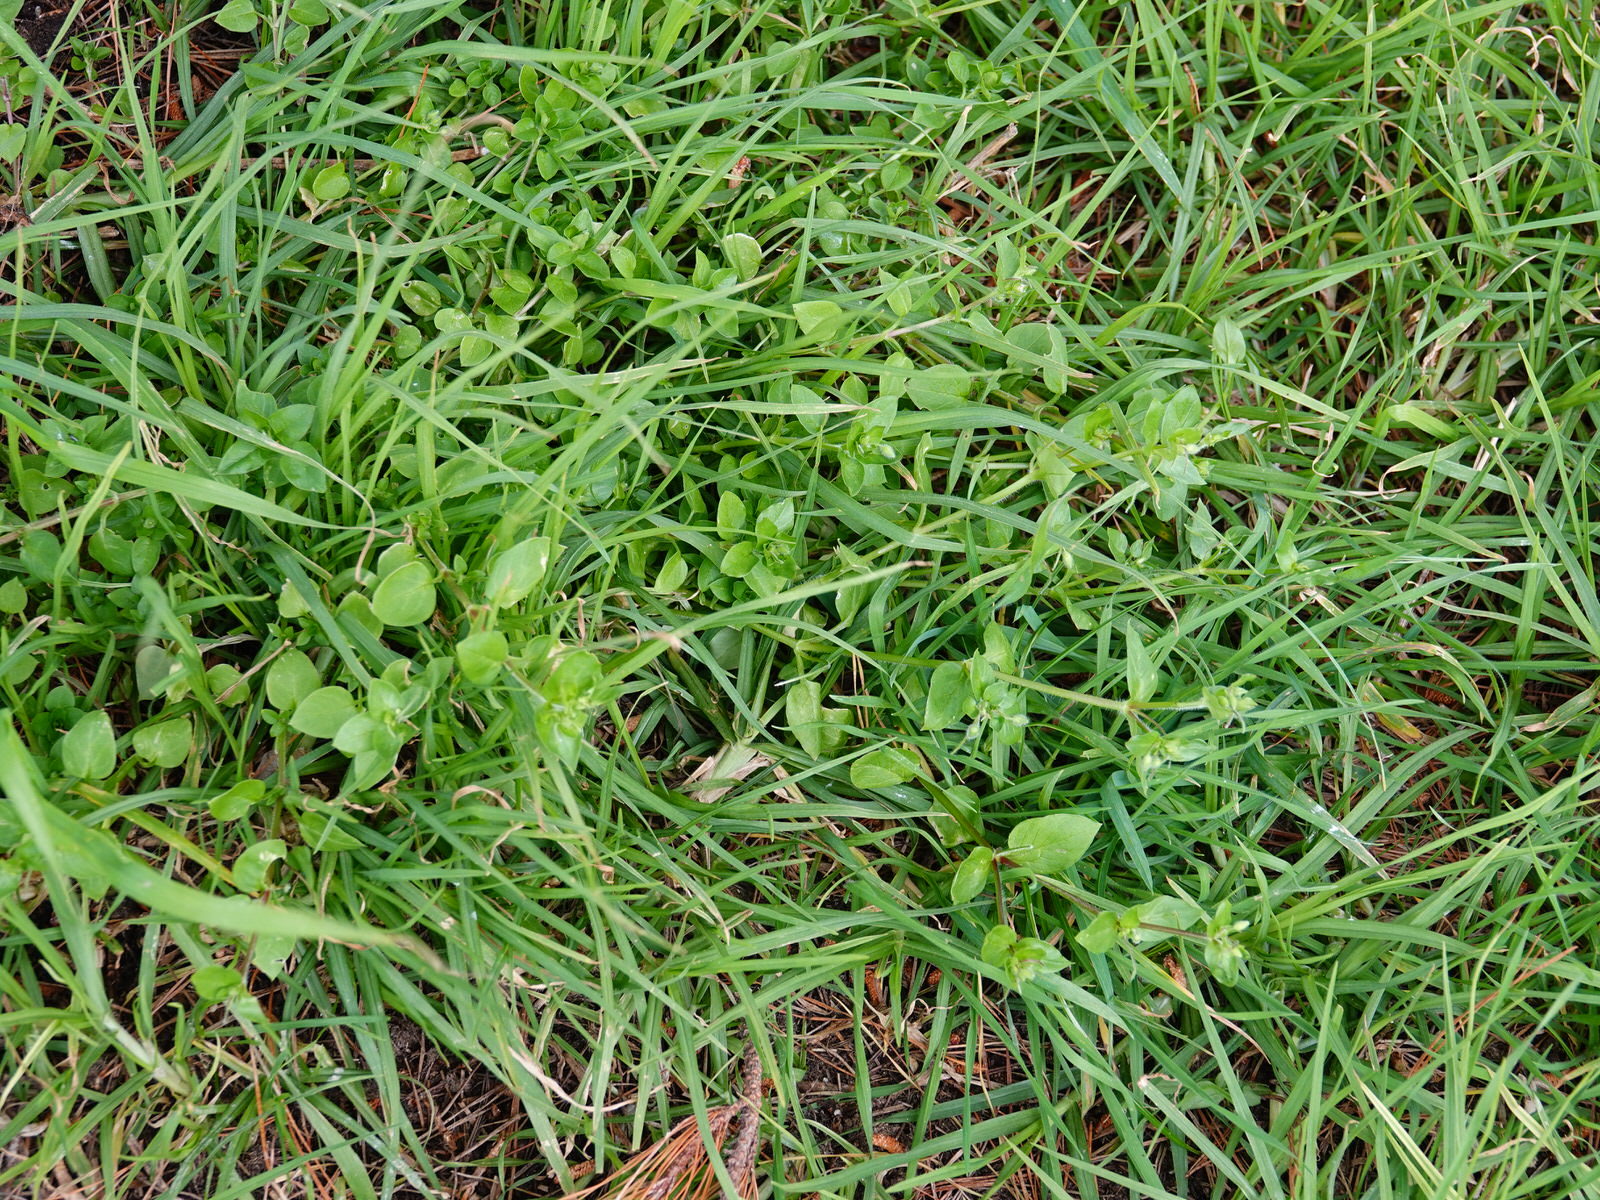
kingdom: Plantae
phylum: Tracheophyta
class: Magnoliopsida
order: Caryophyllales
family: Caryophyllaceae
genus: Stellaria
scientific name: Stellaria media
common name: Common chickweed
